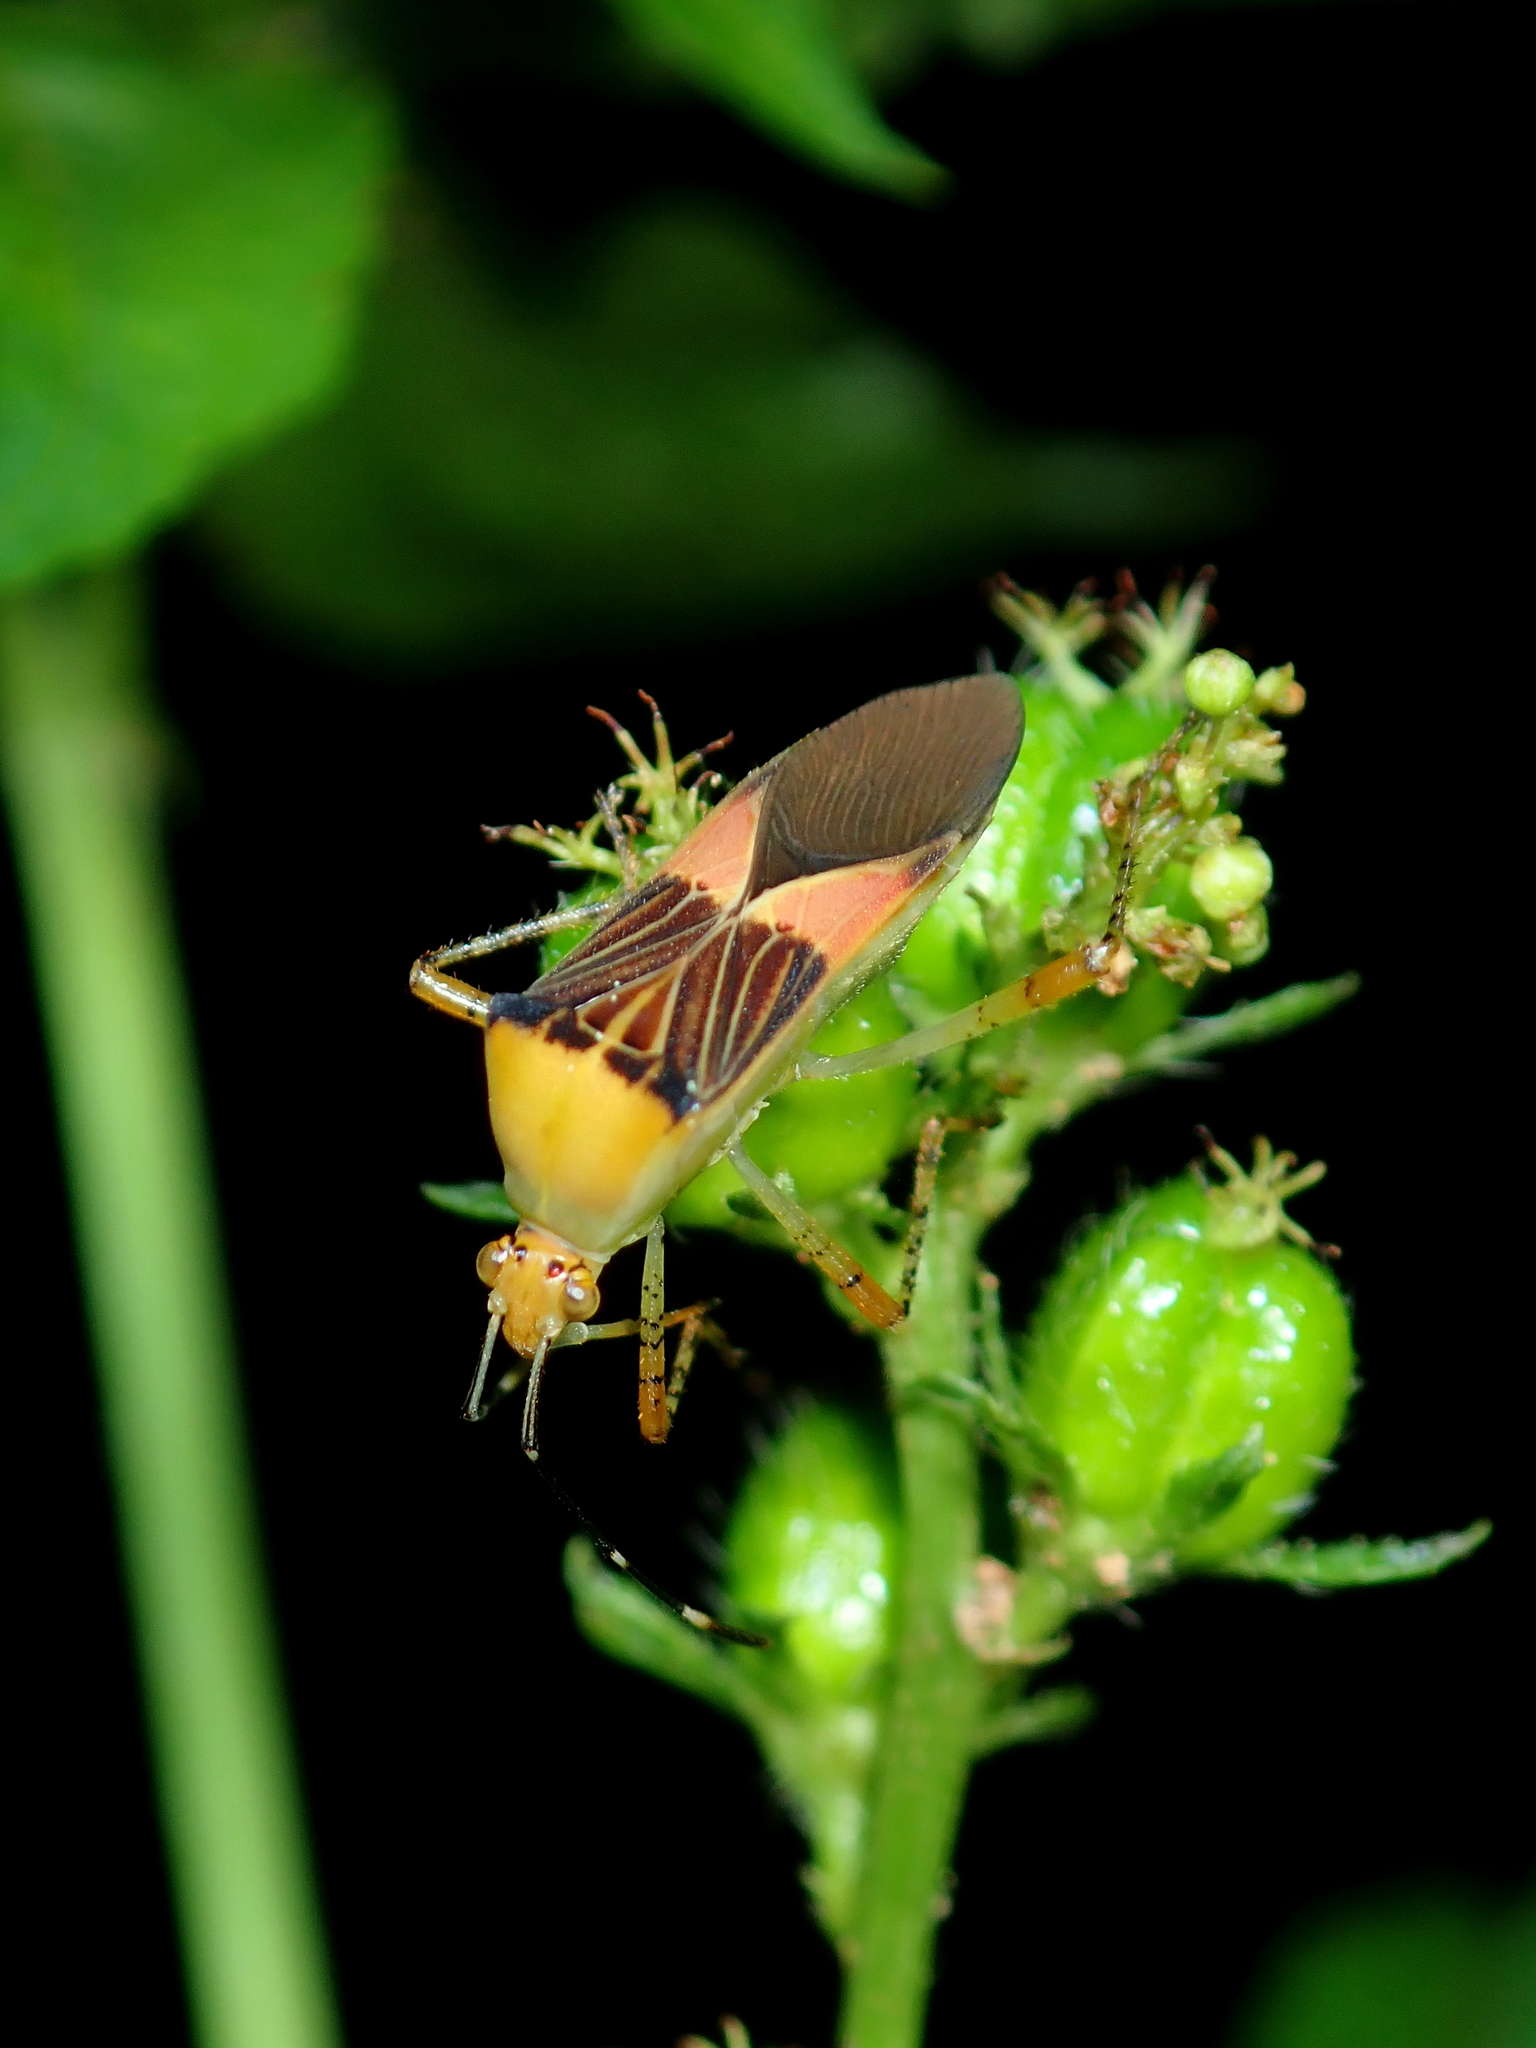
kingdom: Animalia
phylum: Arthropoda
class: Insecta
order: Hemiptera
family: Coreidae
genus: Hypselonotus
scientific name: Hypselonotus fulvus
